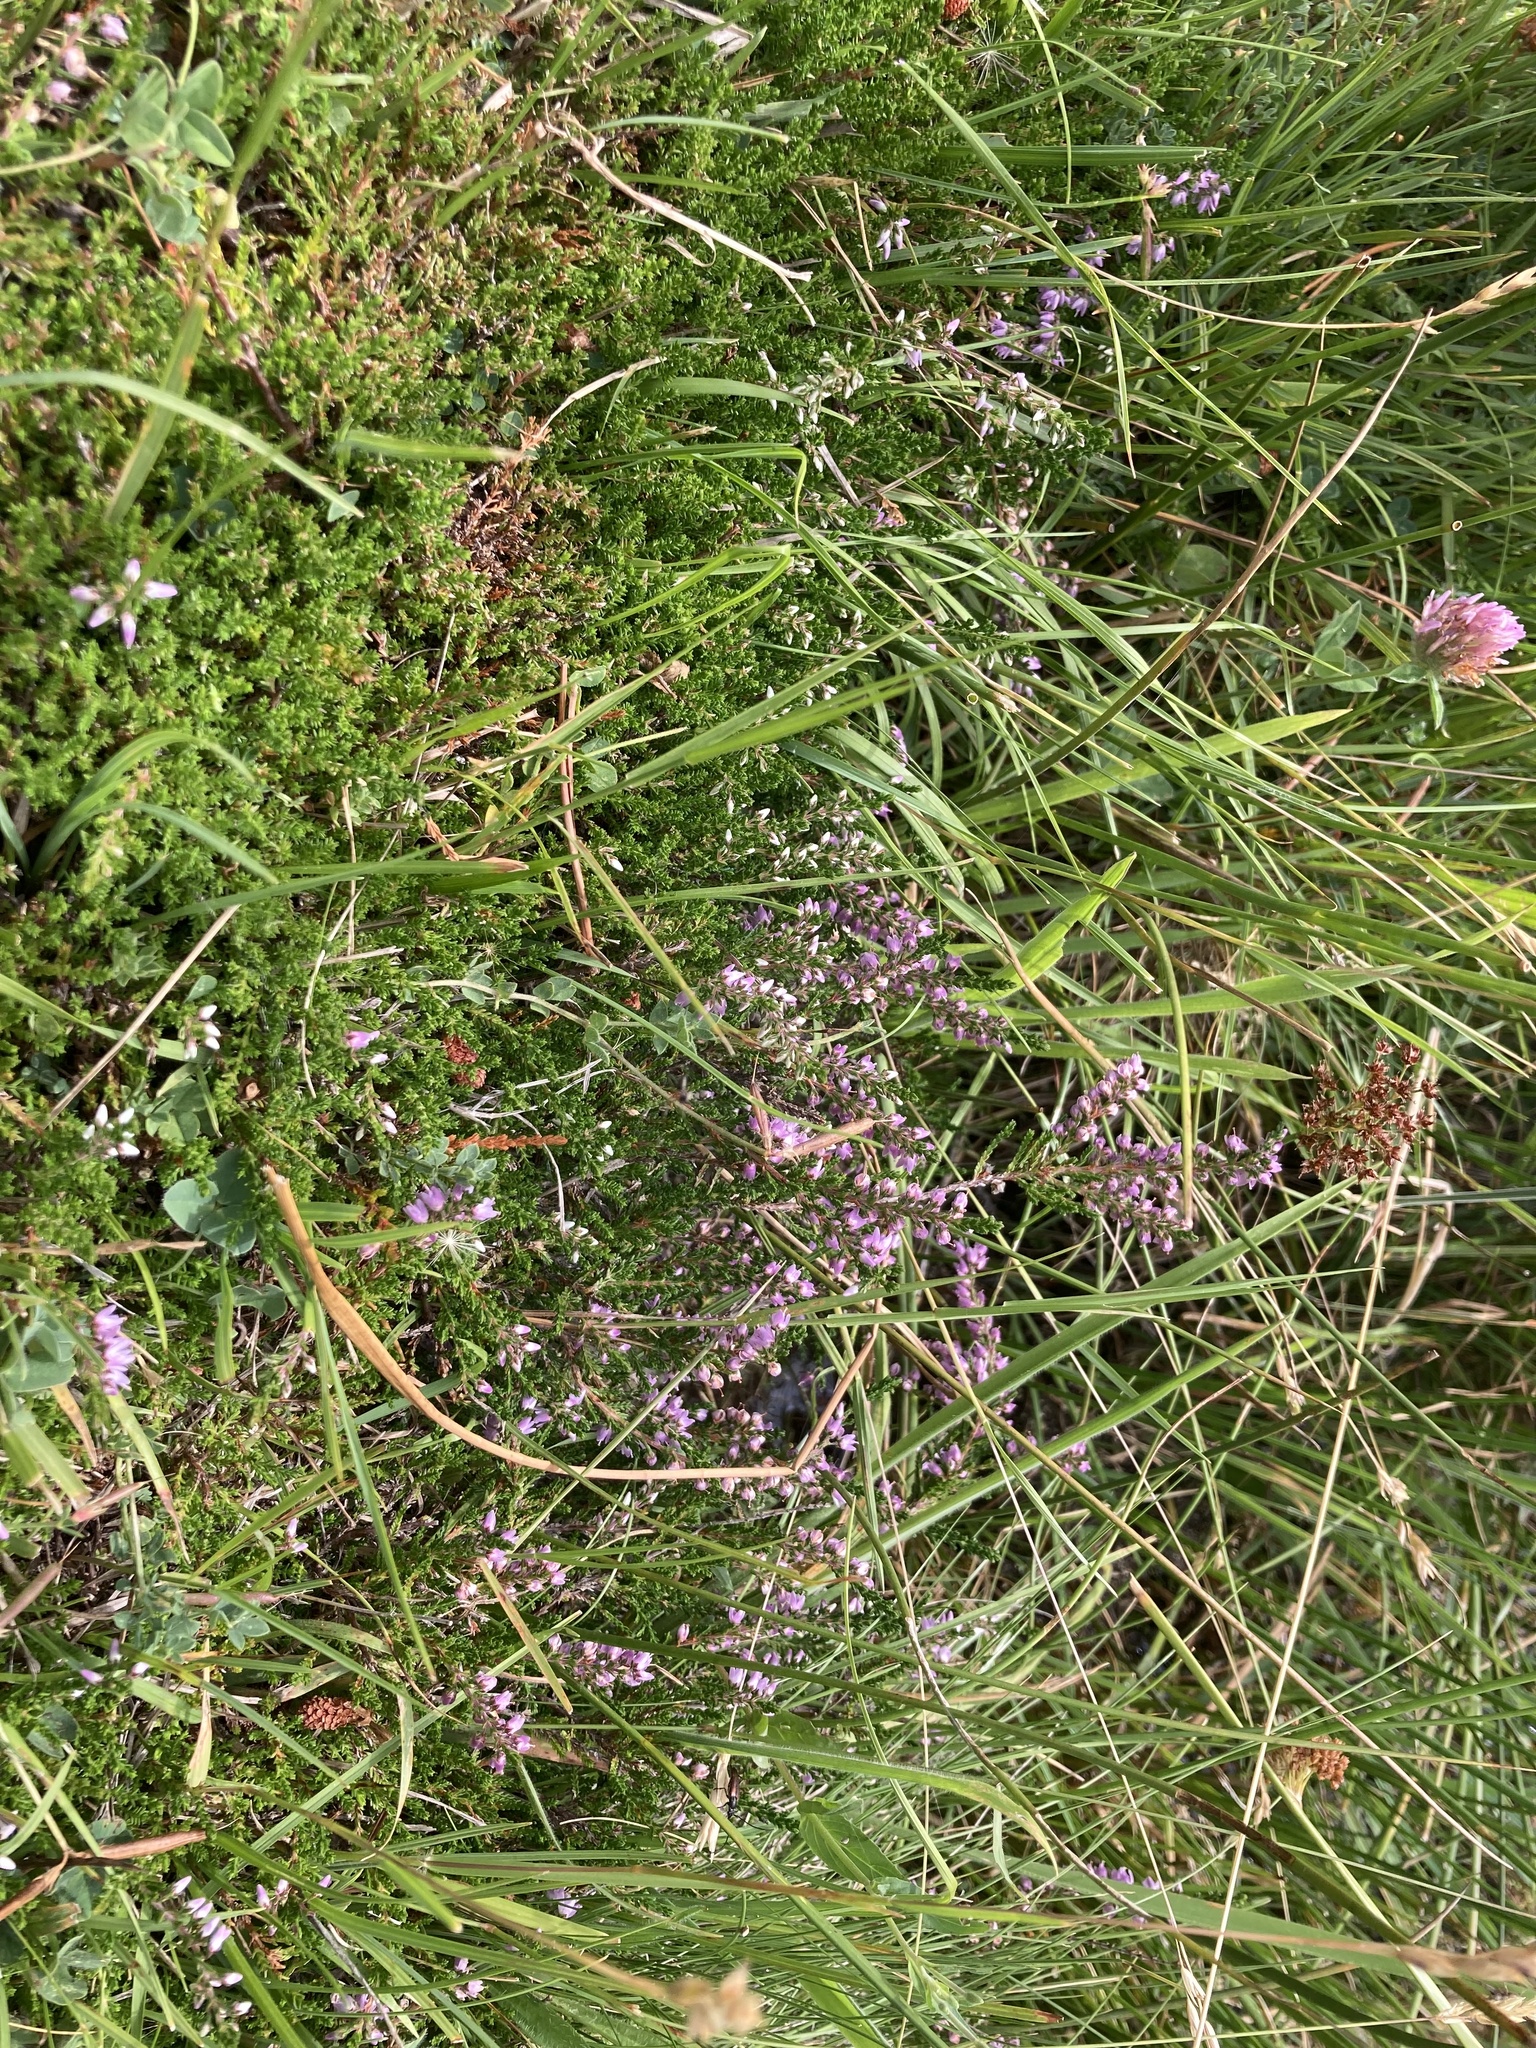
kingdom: Plantae
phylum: Tracheophyta
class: Magnoliopsida
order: Ericales
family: Ericaceae
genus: Calluna
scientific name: Calluna vulgaris
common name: Heather
